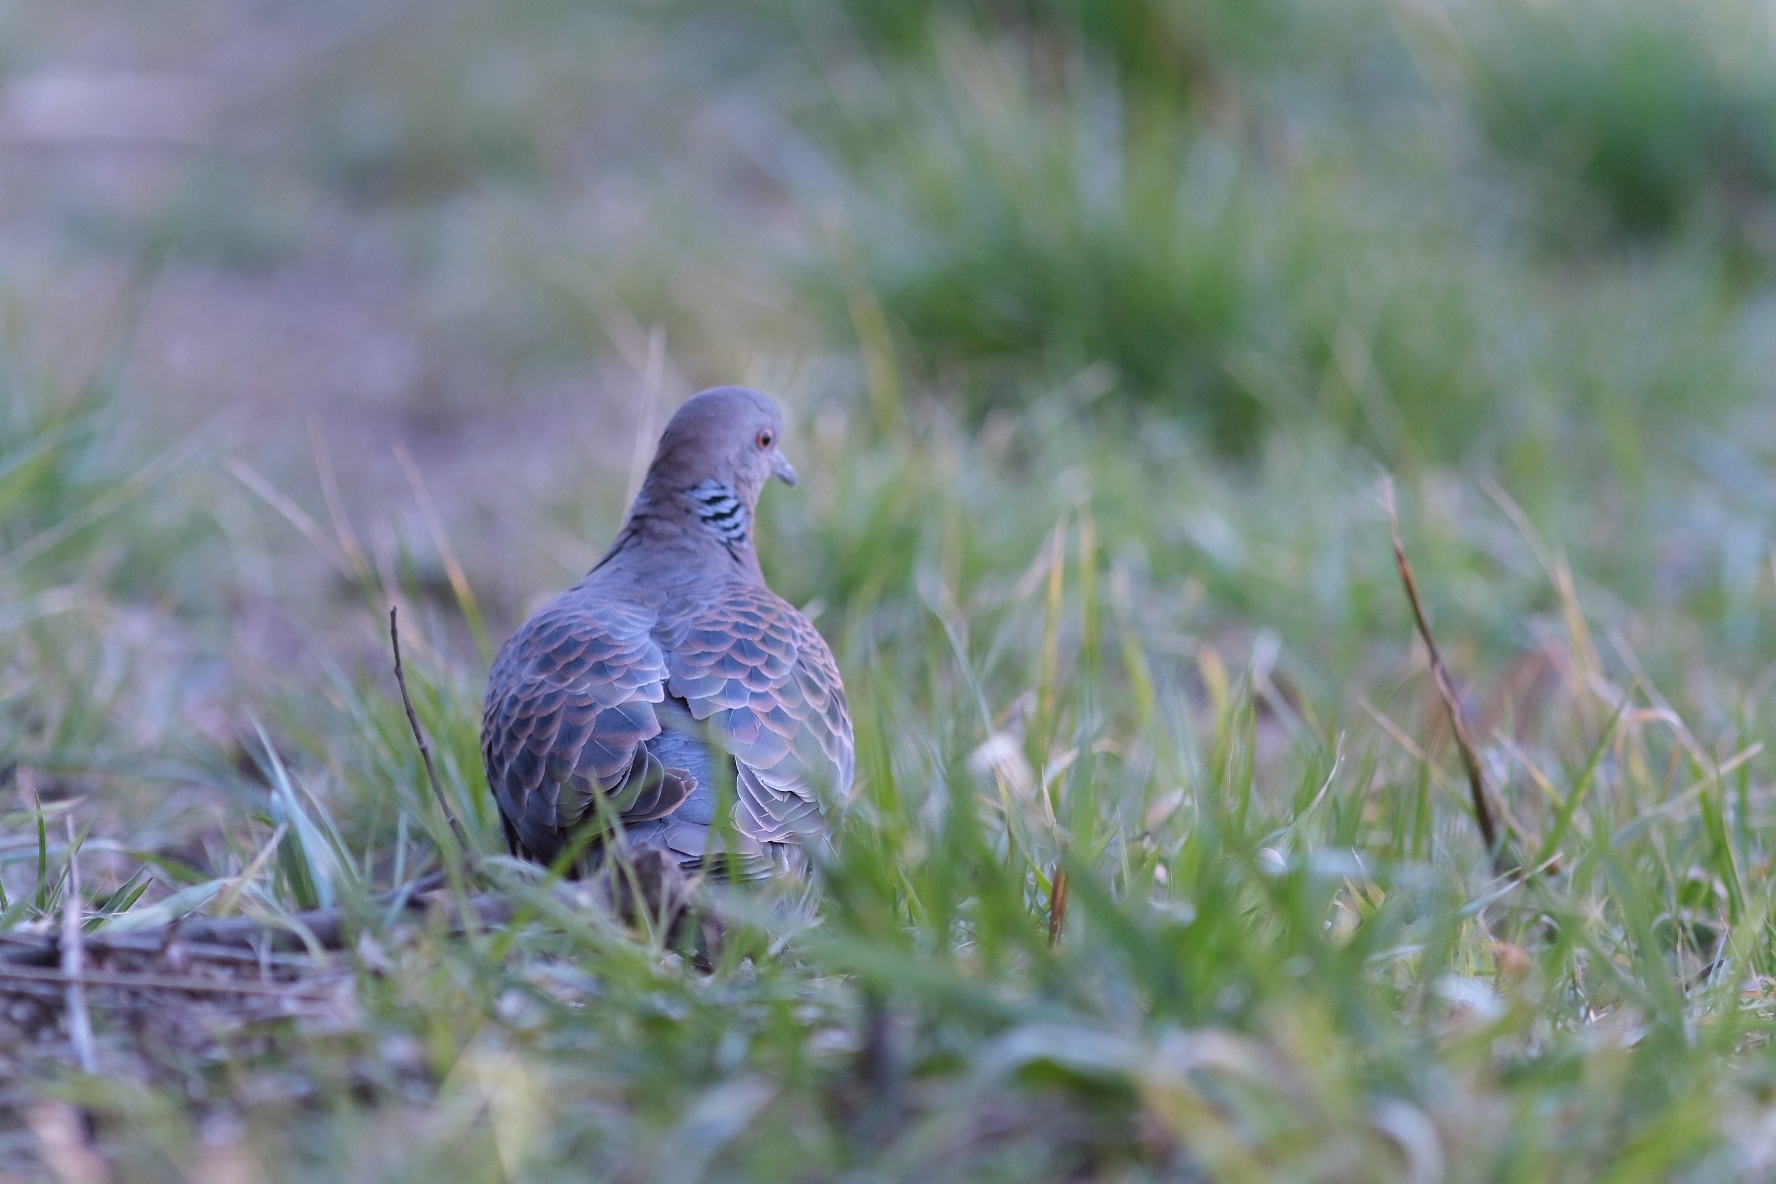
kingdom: Animalia
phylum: Chordata
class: Aves
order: Columbiformes
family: Columbidae
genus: Streptopelia
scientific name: Streptopelia orientalis
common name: Oriental turtle dove
